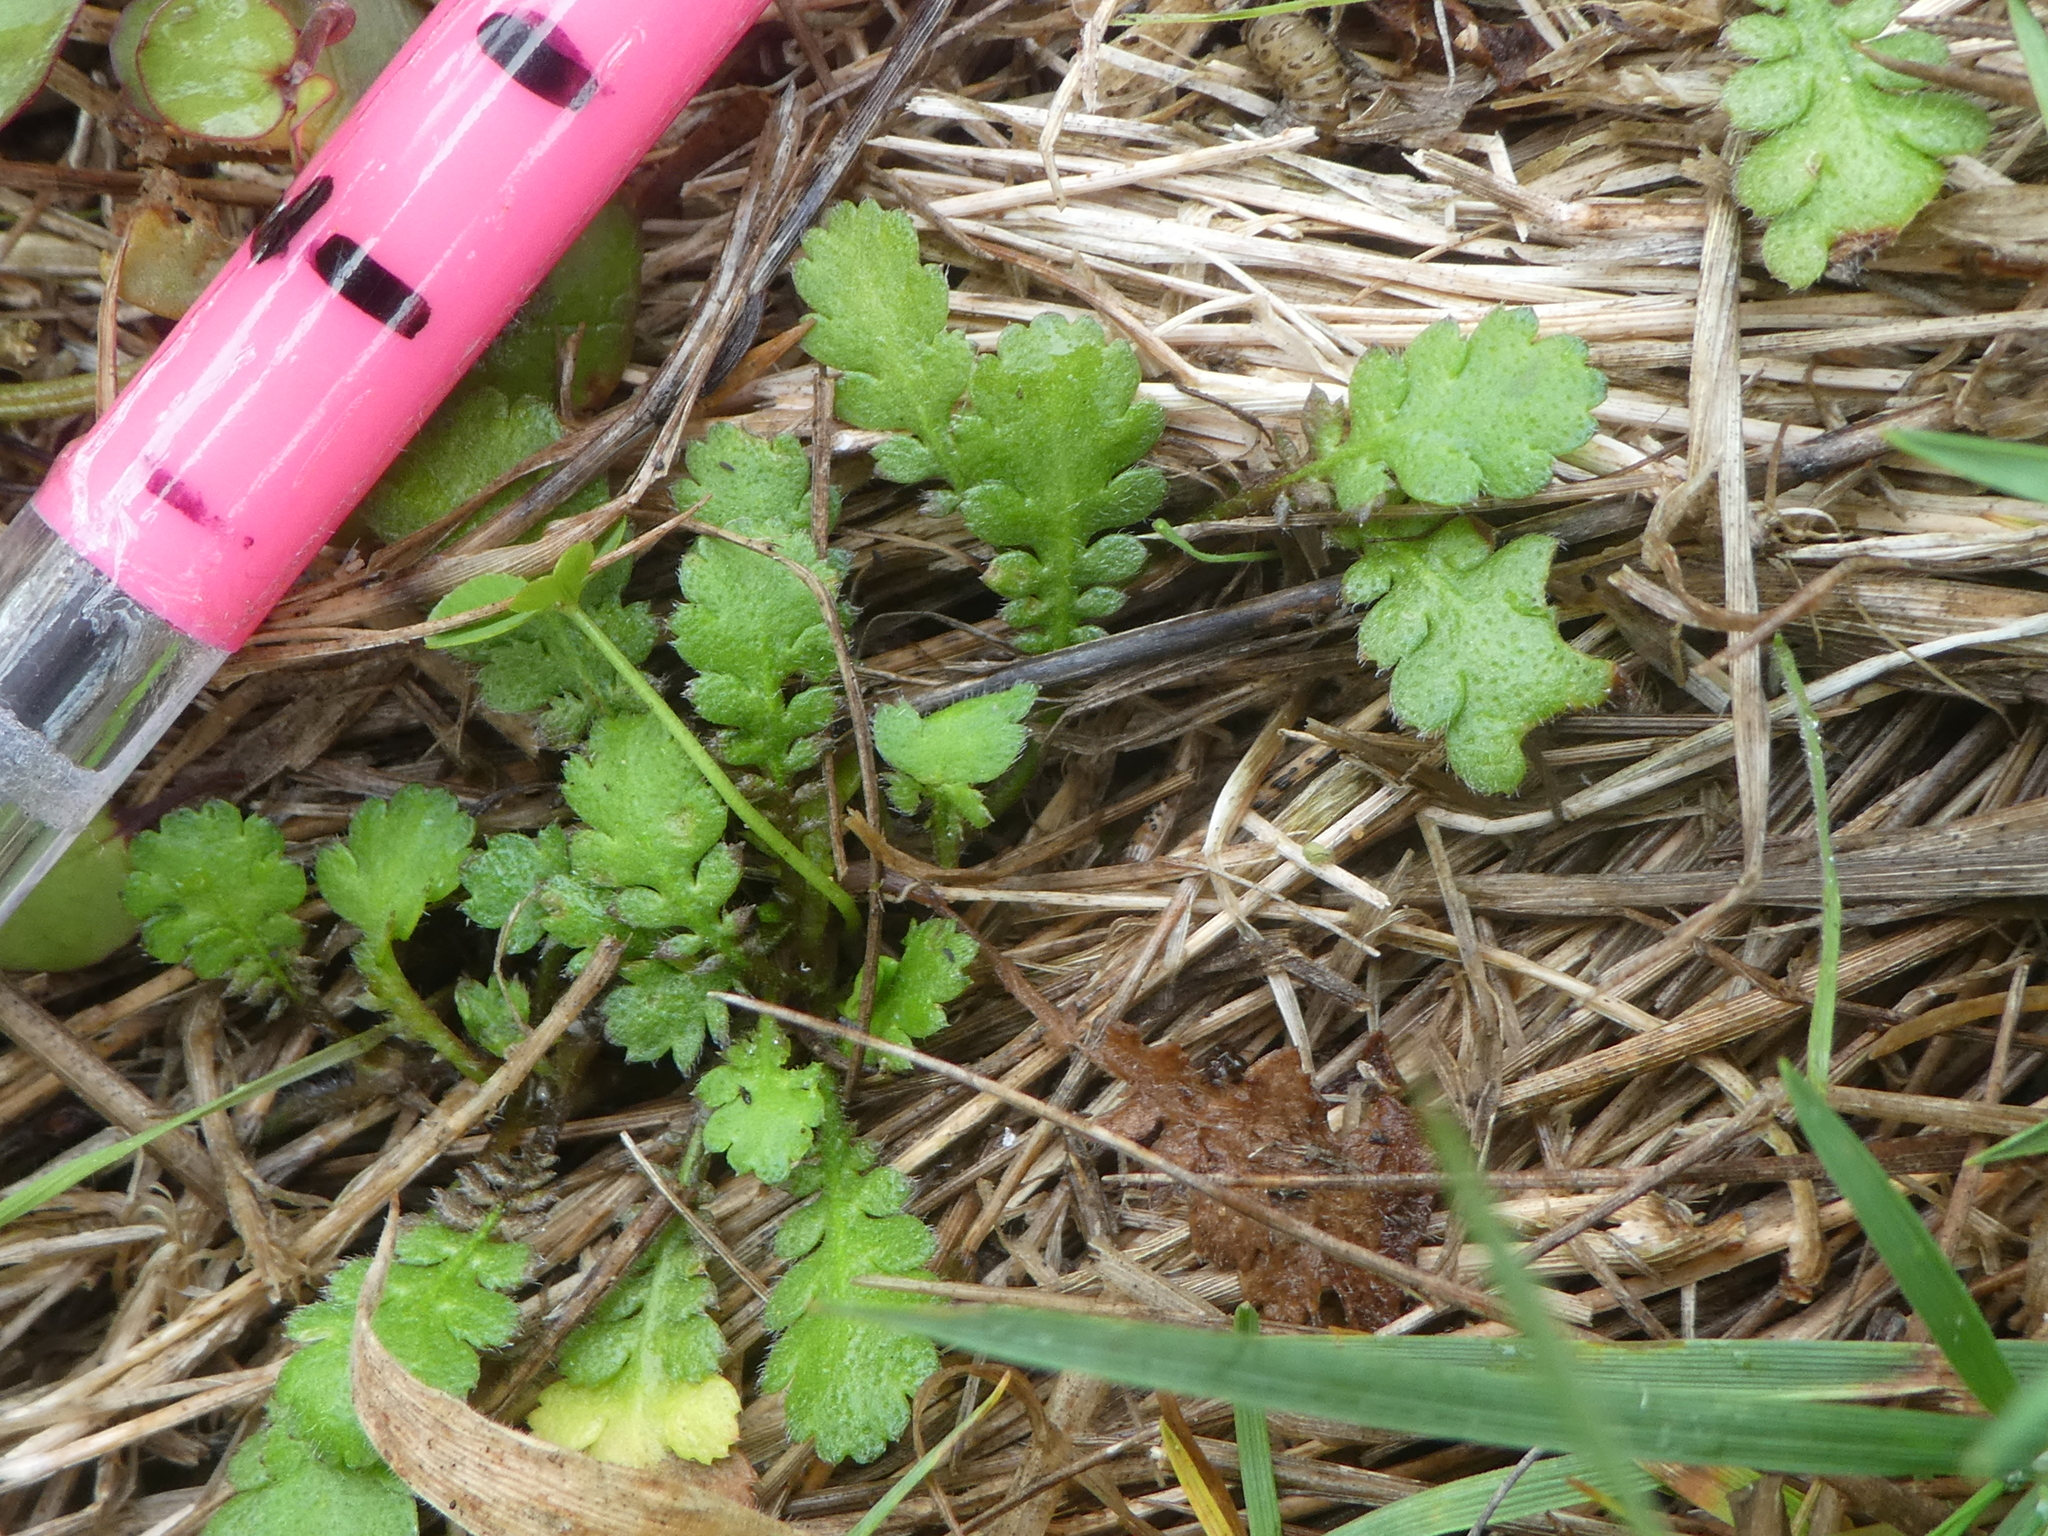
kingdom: Plantae
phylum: Tracheophyta
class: Magnoliopsida
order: Asterales
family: Asteraceae
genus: Leptinella
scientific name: Leptinella squalida
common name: New zealand brass-buttons
